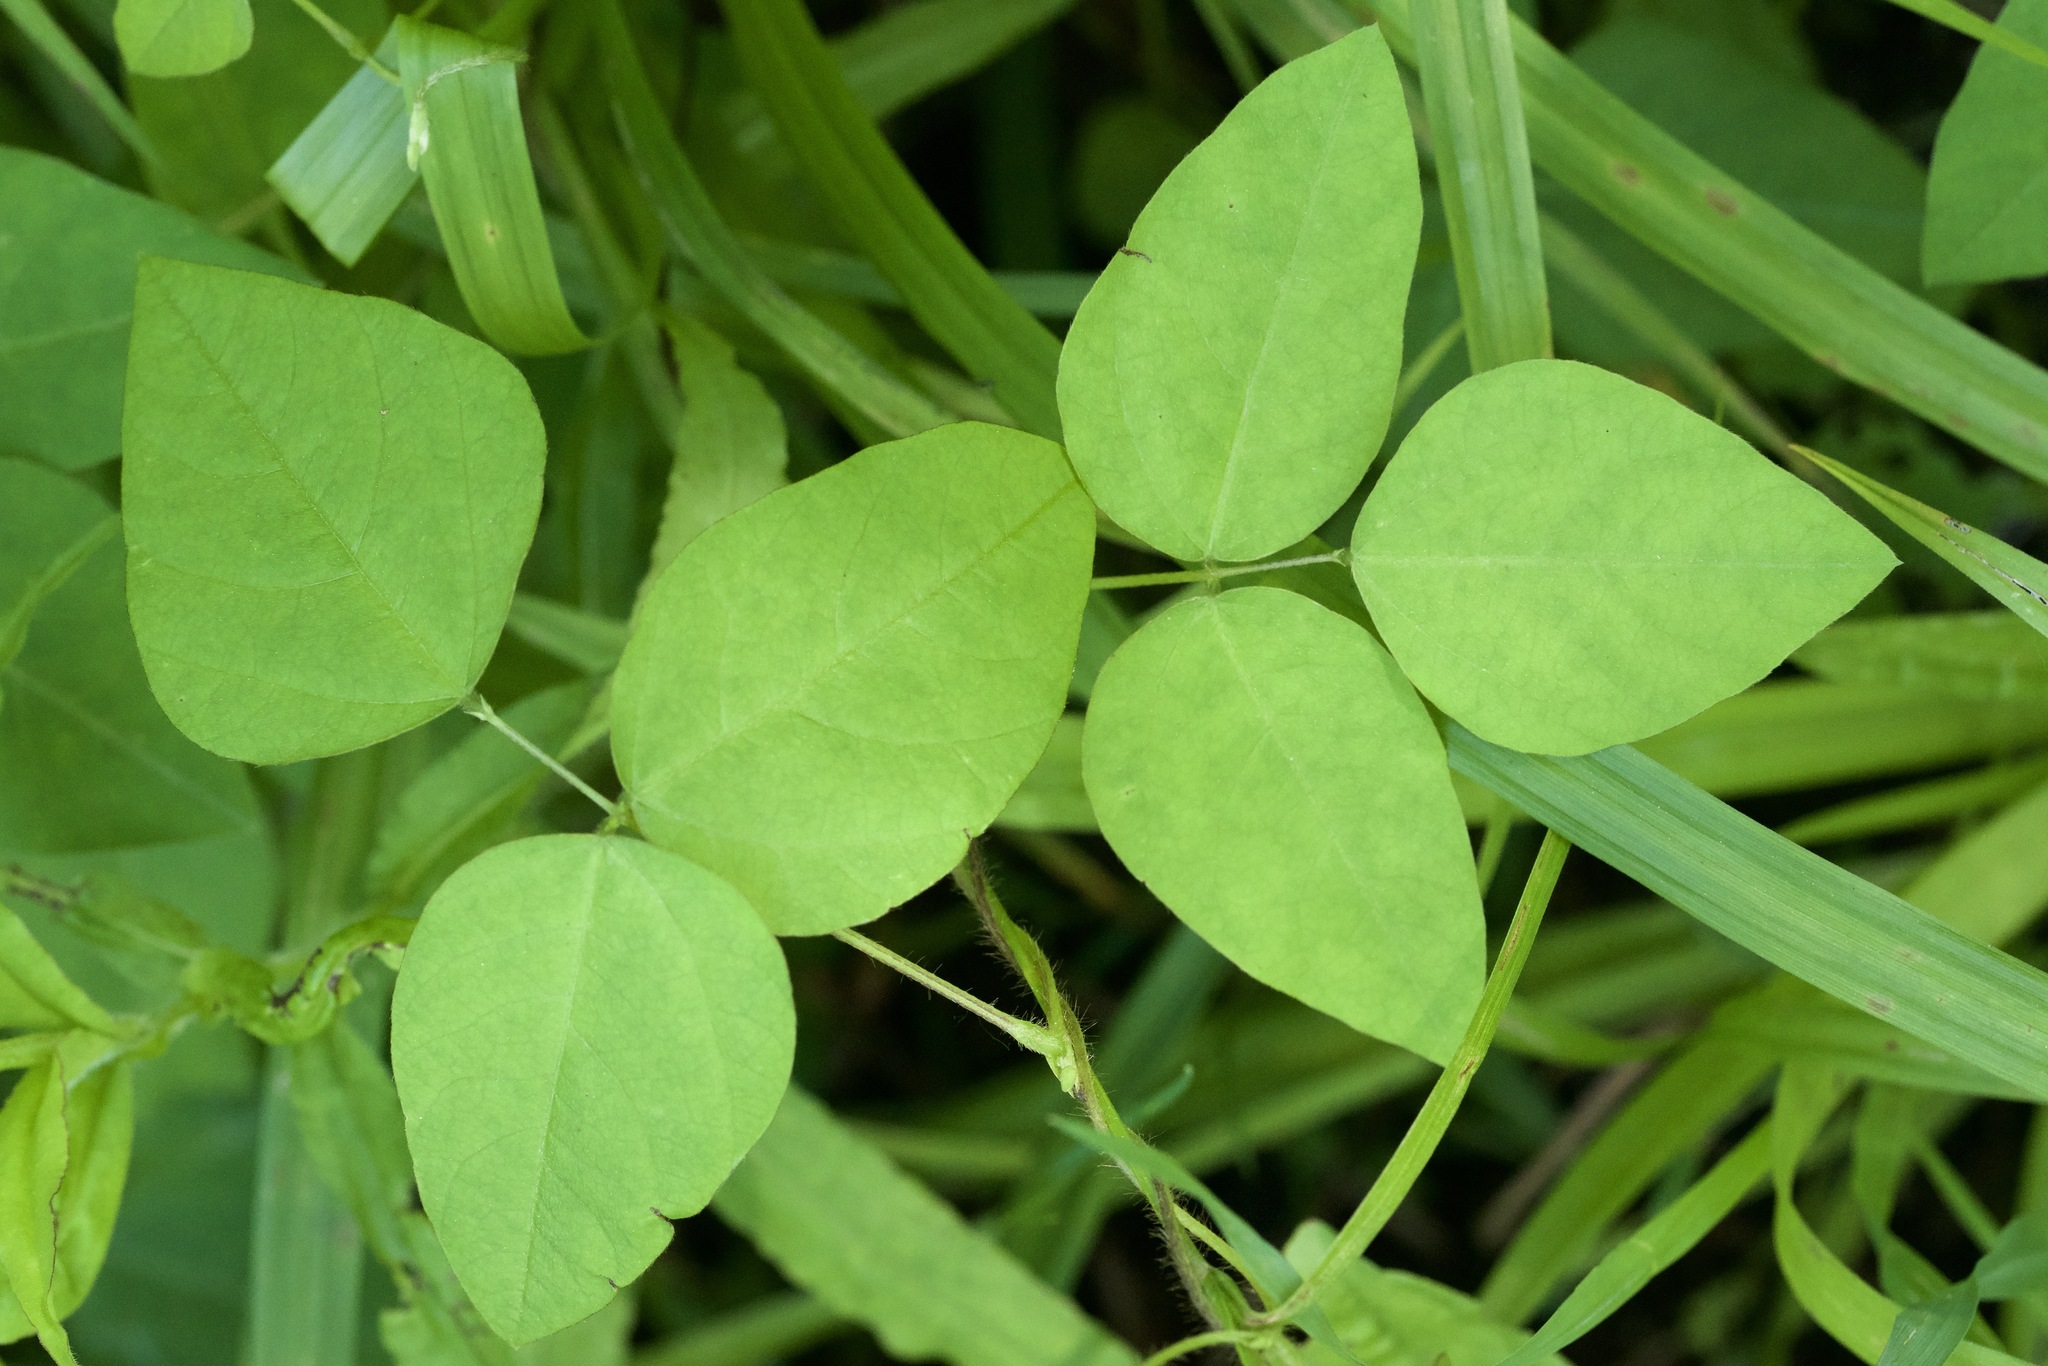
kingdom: Plantae
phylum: Tracheophyta
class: Magnoliopsida
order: Fabales
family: Fabaceae
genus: Amphicarpaea
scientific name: Amphicarpaea bracteata
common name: American hog peanut
